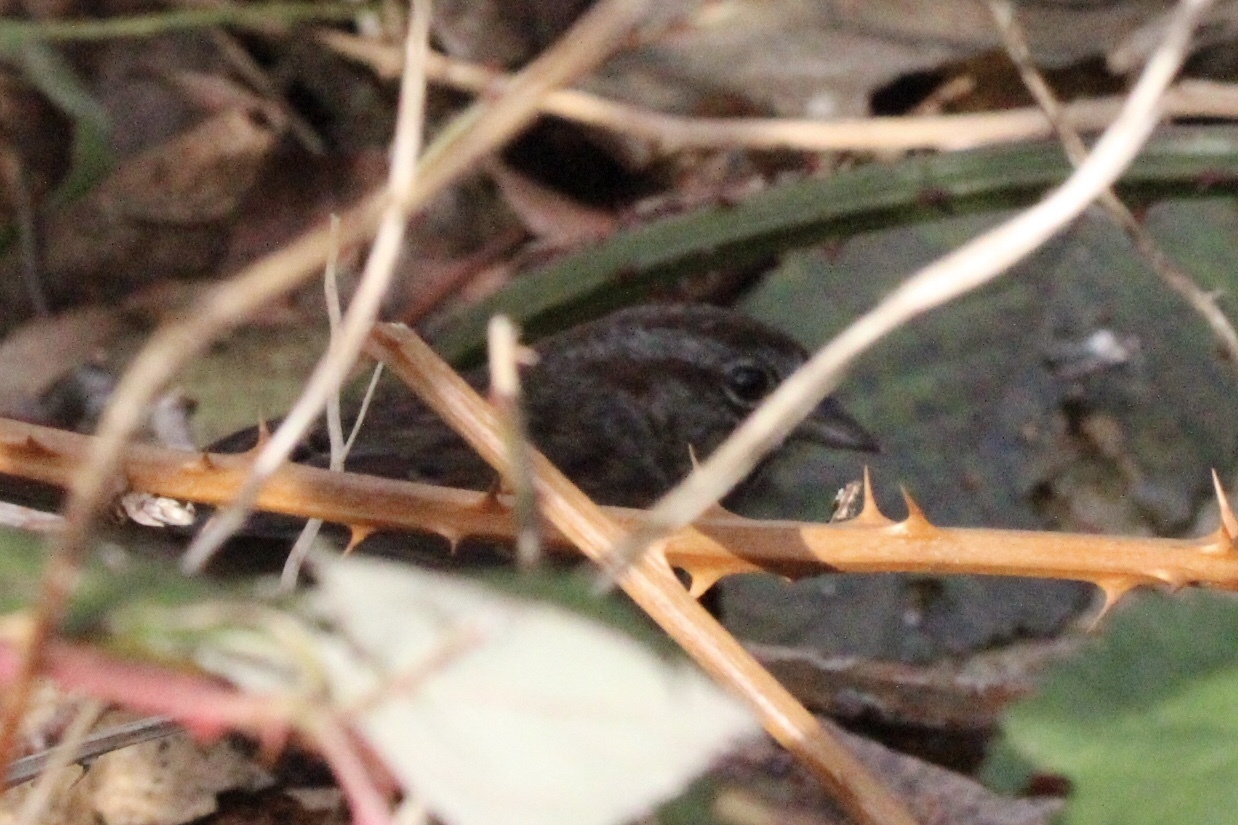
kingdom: Animalia
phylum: Chordata
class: Aves
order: Passeriformes
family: Passerellidae
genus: Melospiza
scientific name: Melospiza melodia
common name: Song sparrow
